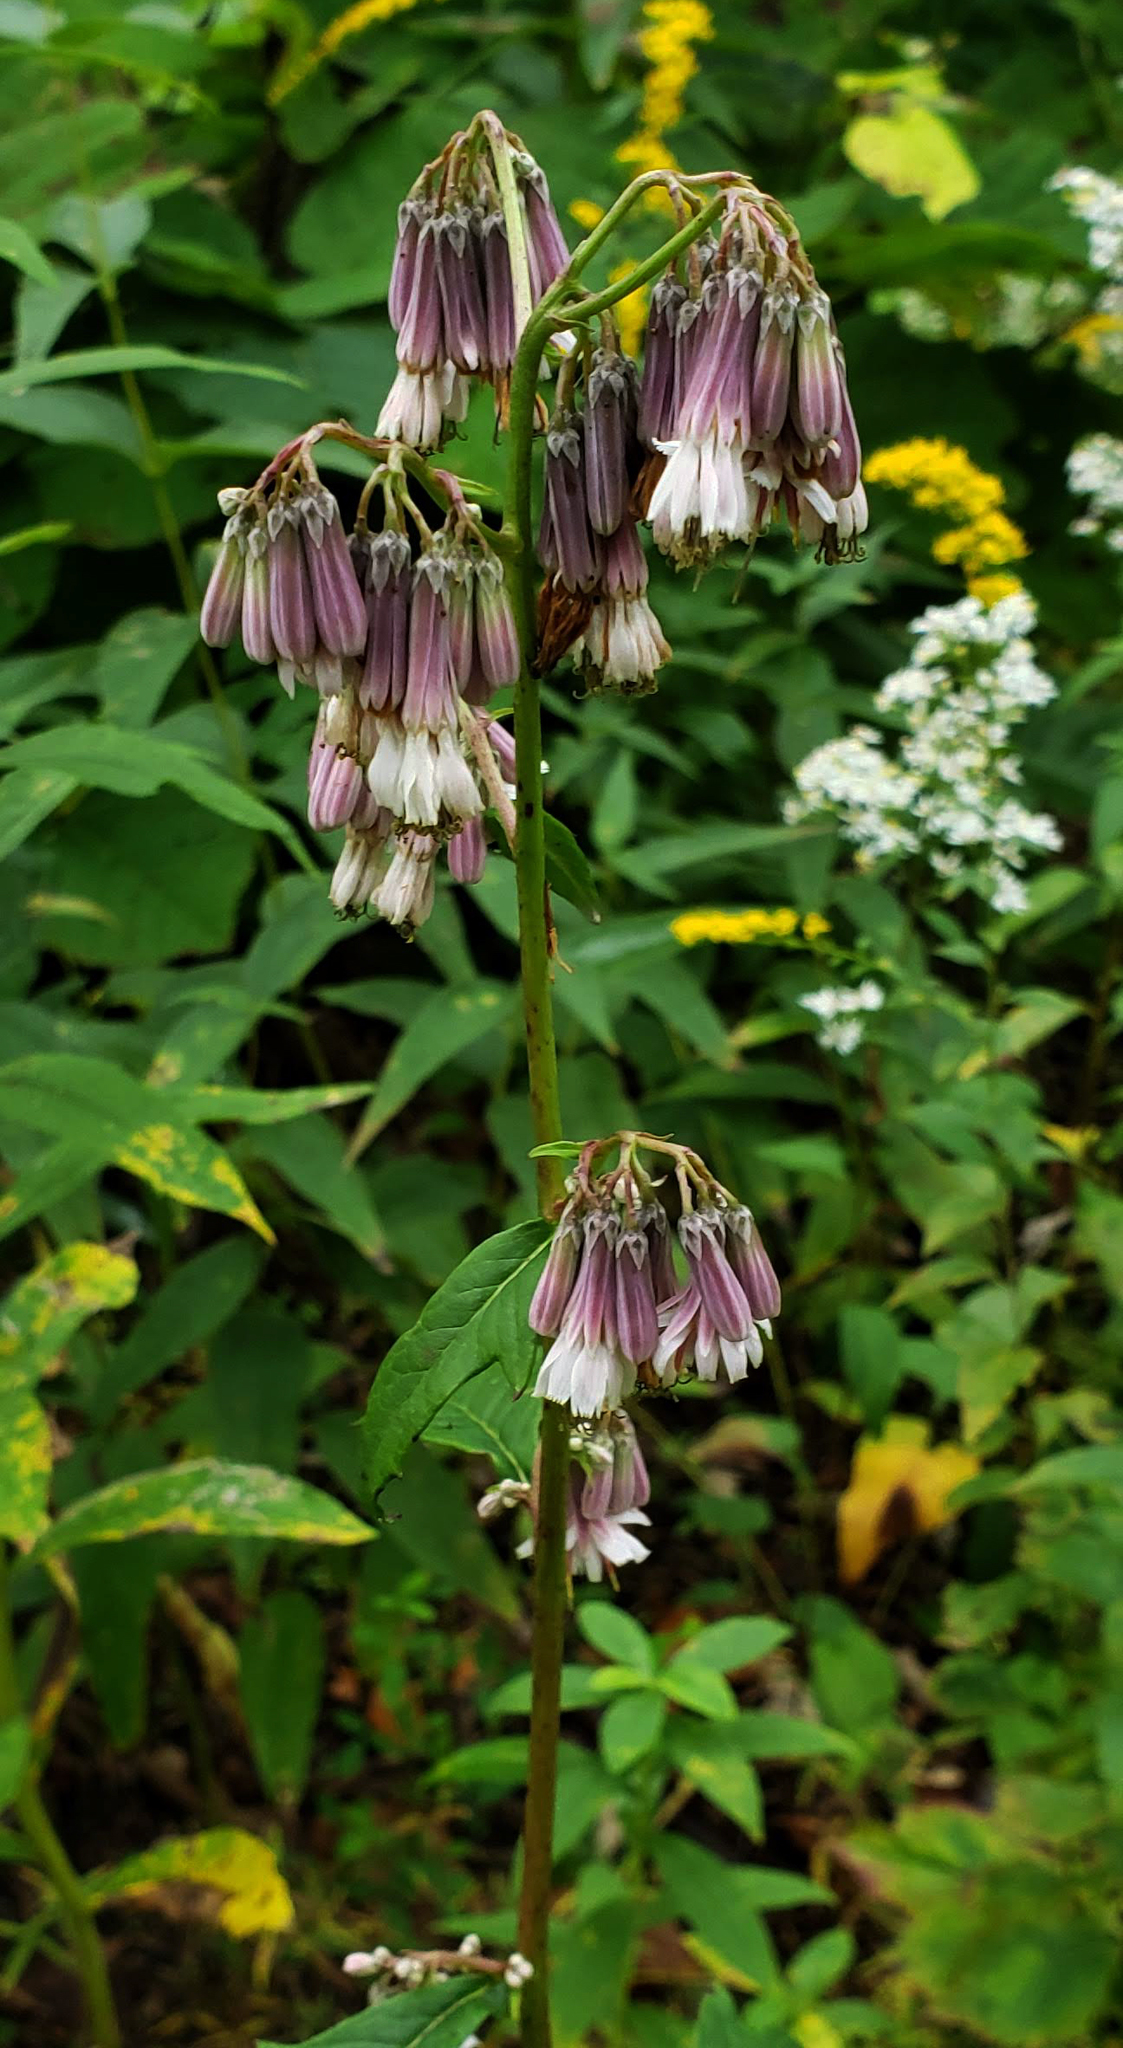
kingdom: Plantae
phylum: Tracheophyta
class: Magnoliopsida
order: Asterales
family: Asteraceae
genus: Nabalus
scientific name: Nabalus albus
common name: White rattlesnakeroot
